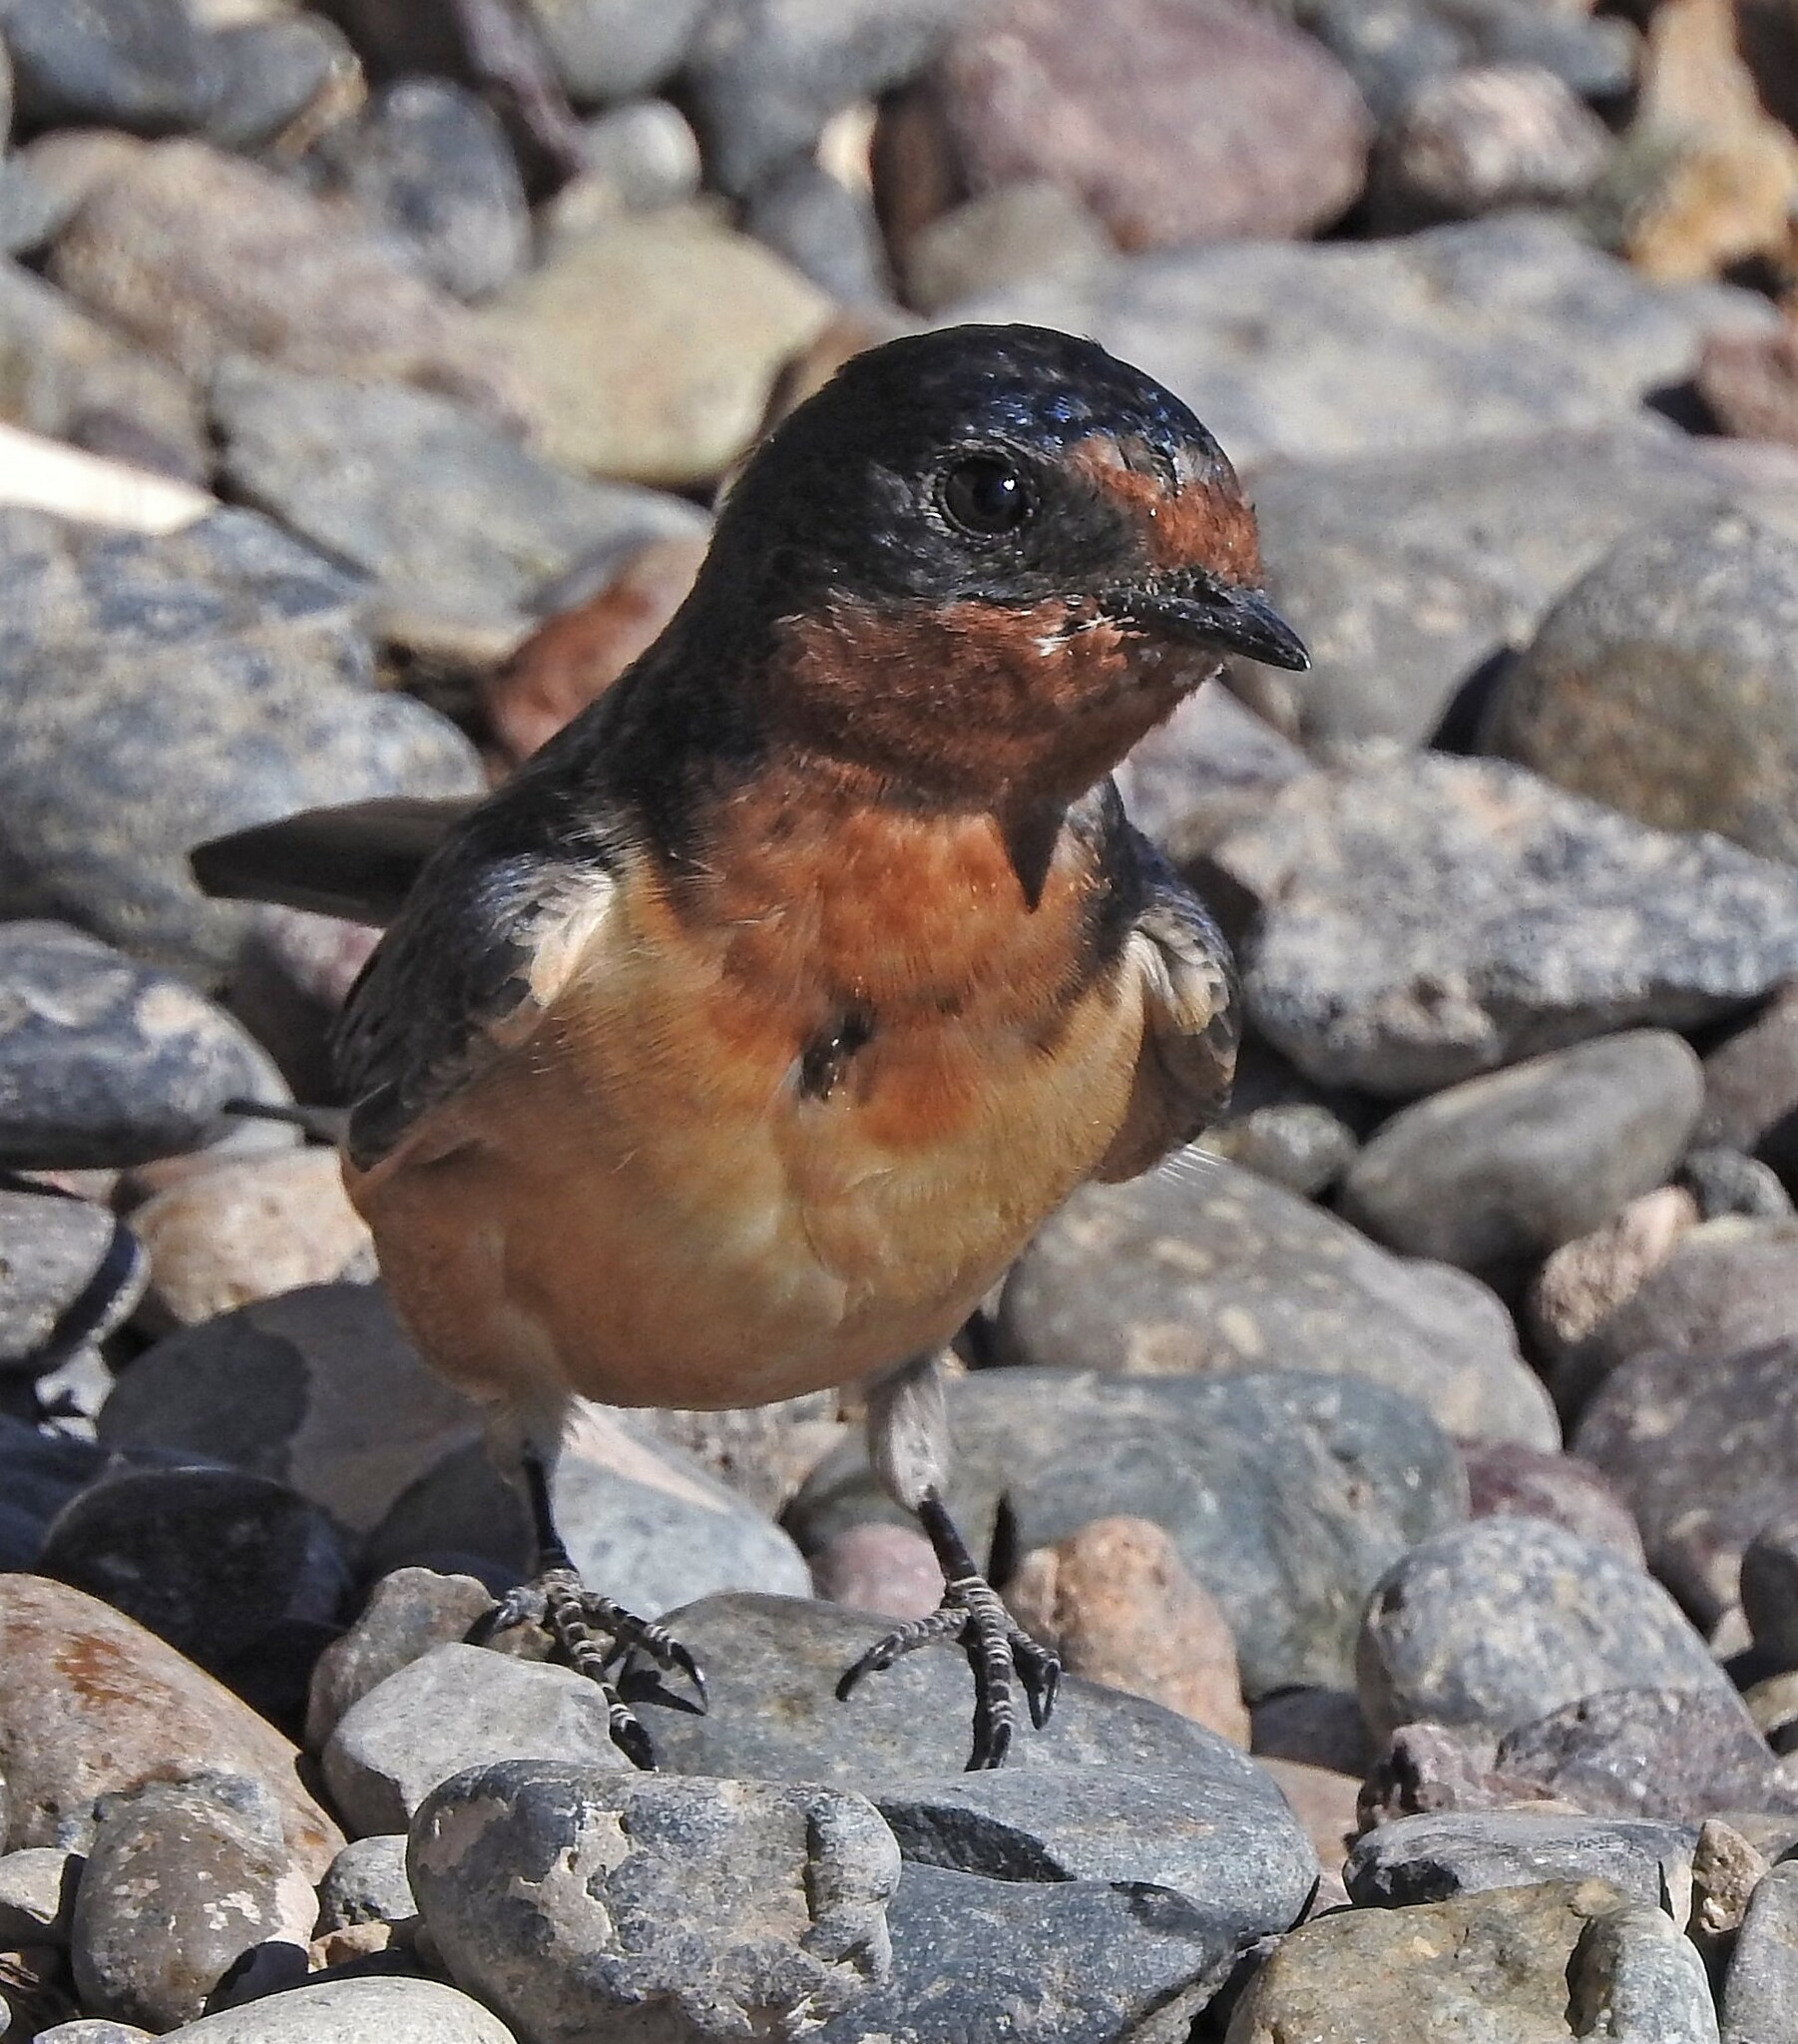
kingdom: Animalia
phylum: Chordata
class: Aves
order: Passeriformes
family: Hirundinidae
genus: Hirundo
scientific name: Hirundo rustica
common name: Barn swallow
